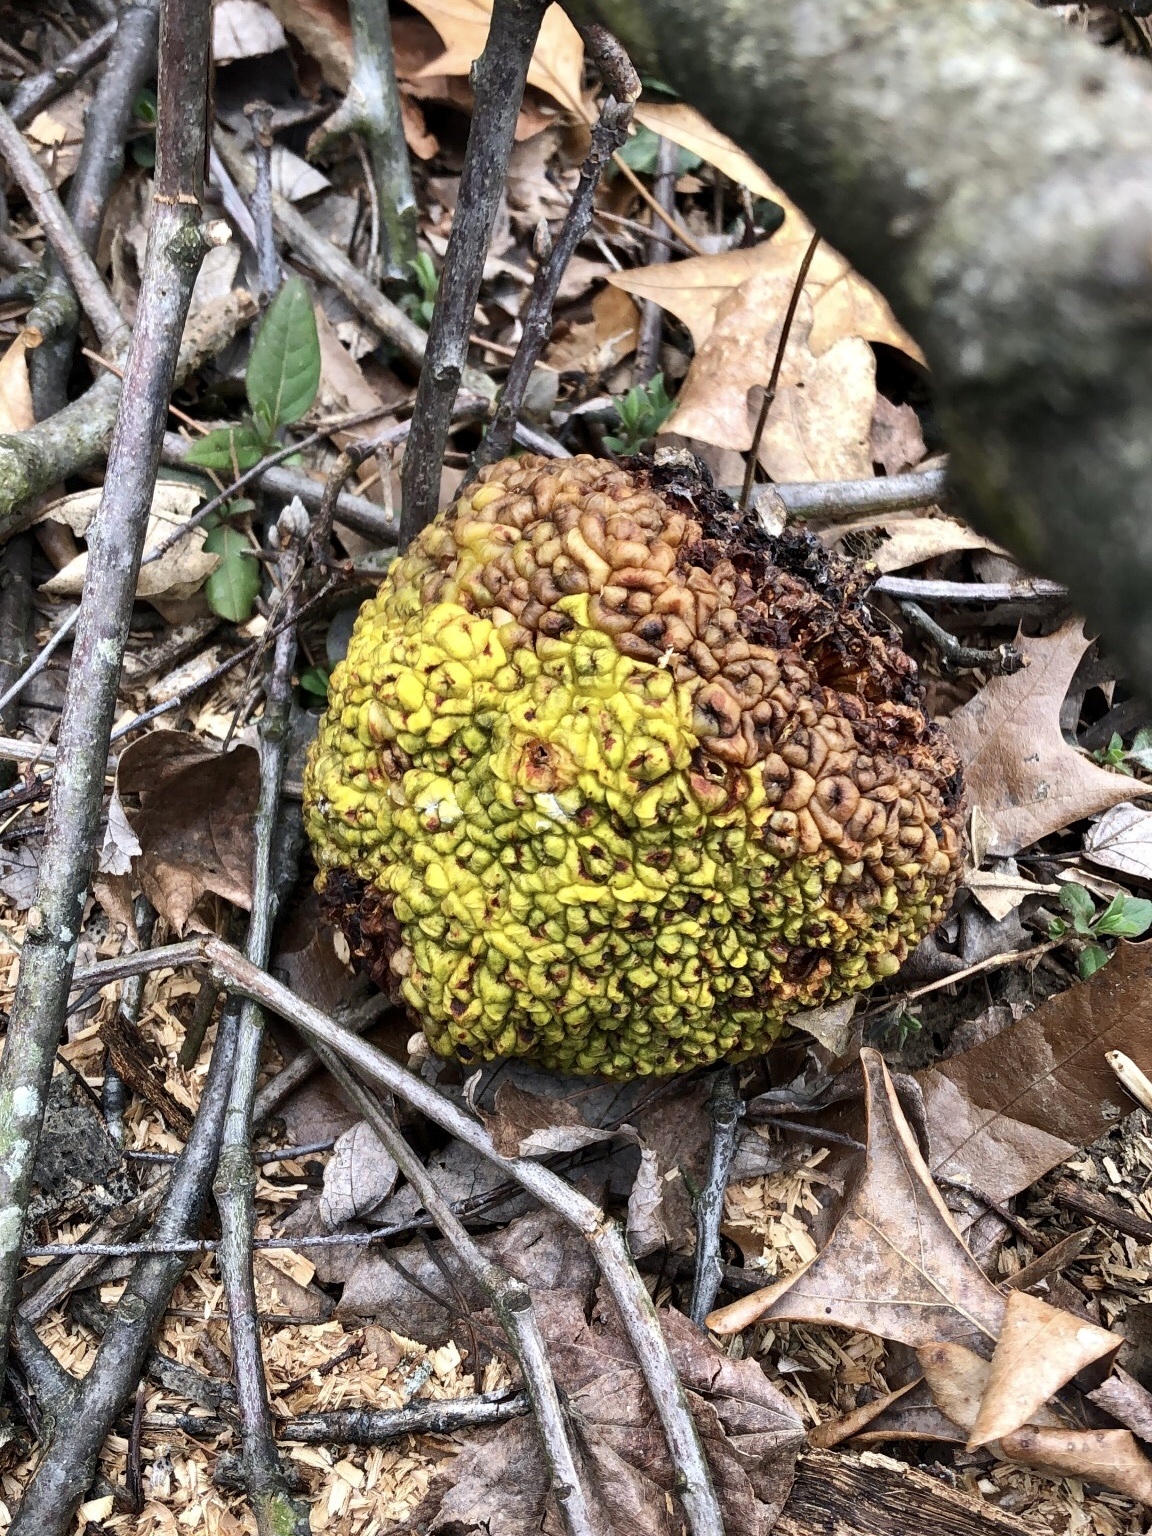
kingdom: Plantae
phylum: Tracheophyta
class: Magnoliopsida
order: Rosales
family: Moraceae
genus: Maclura
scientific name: Maclura pomifera
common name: Osage-orange
